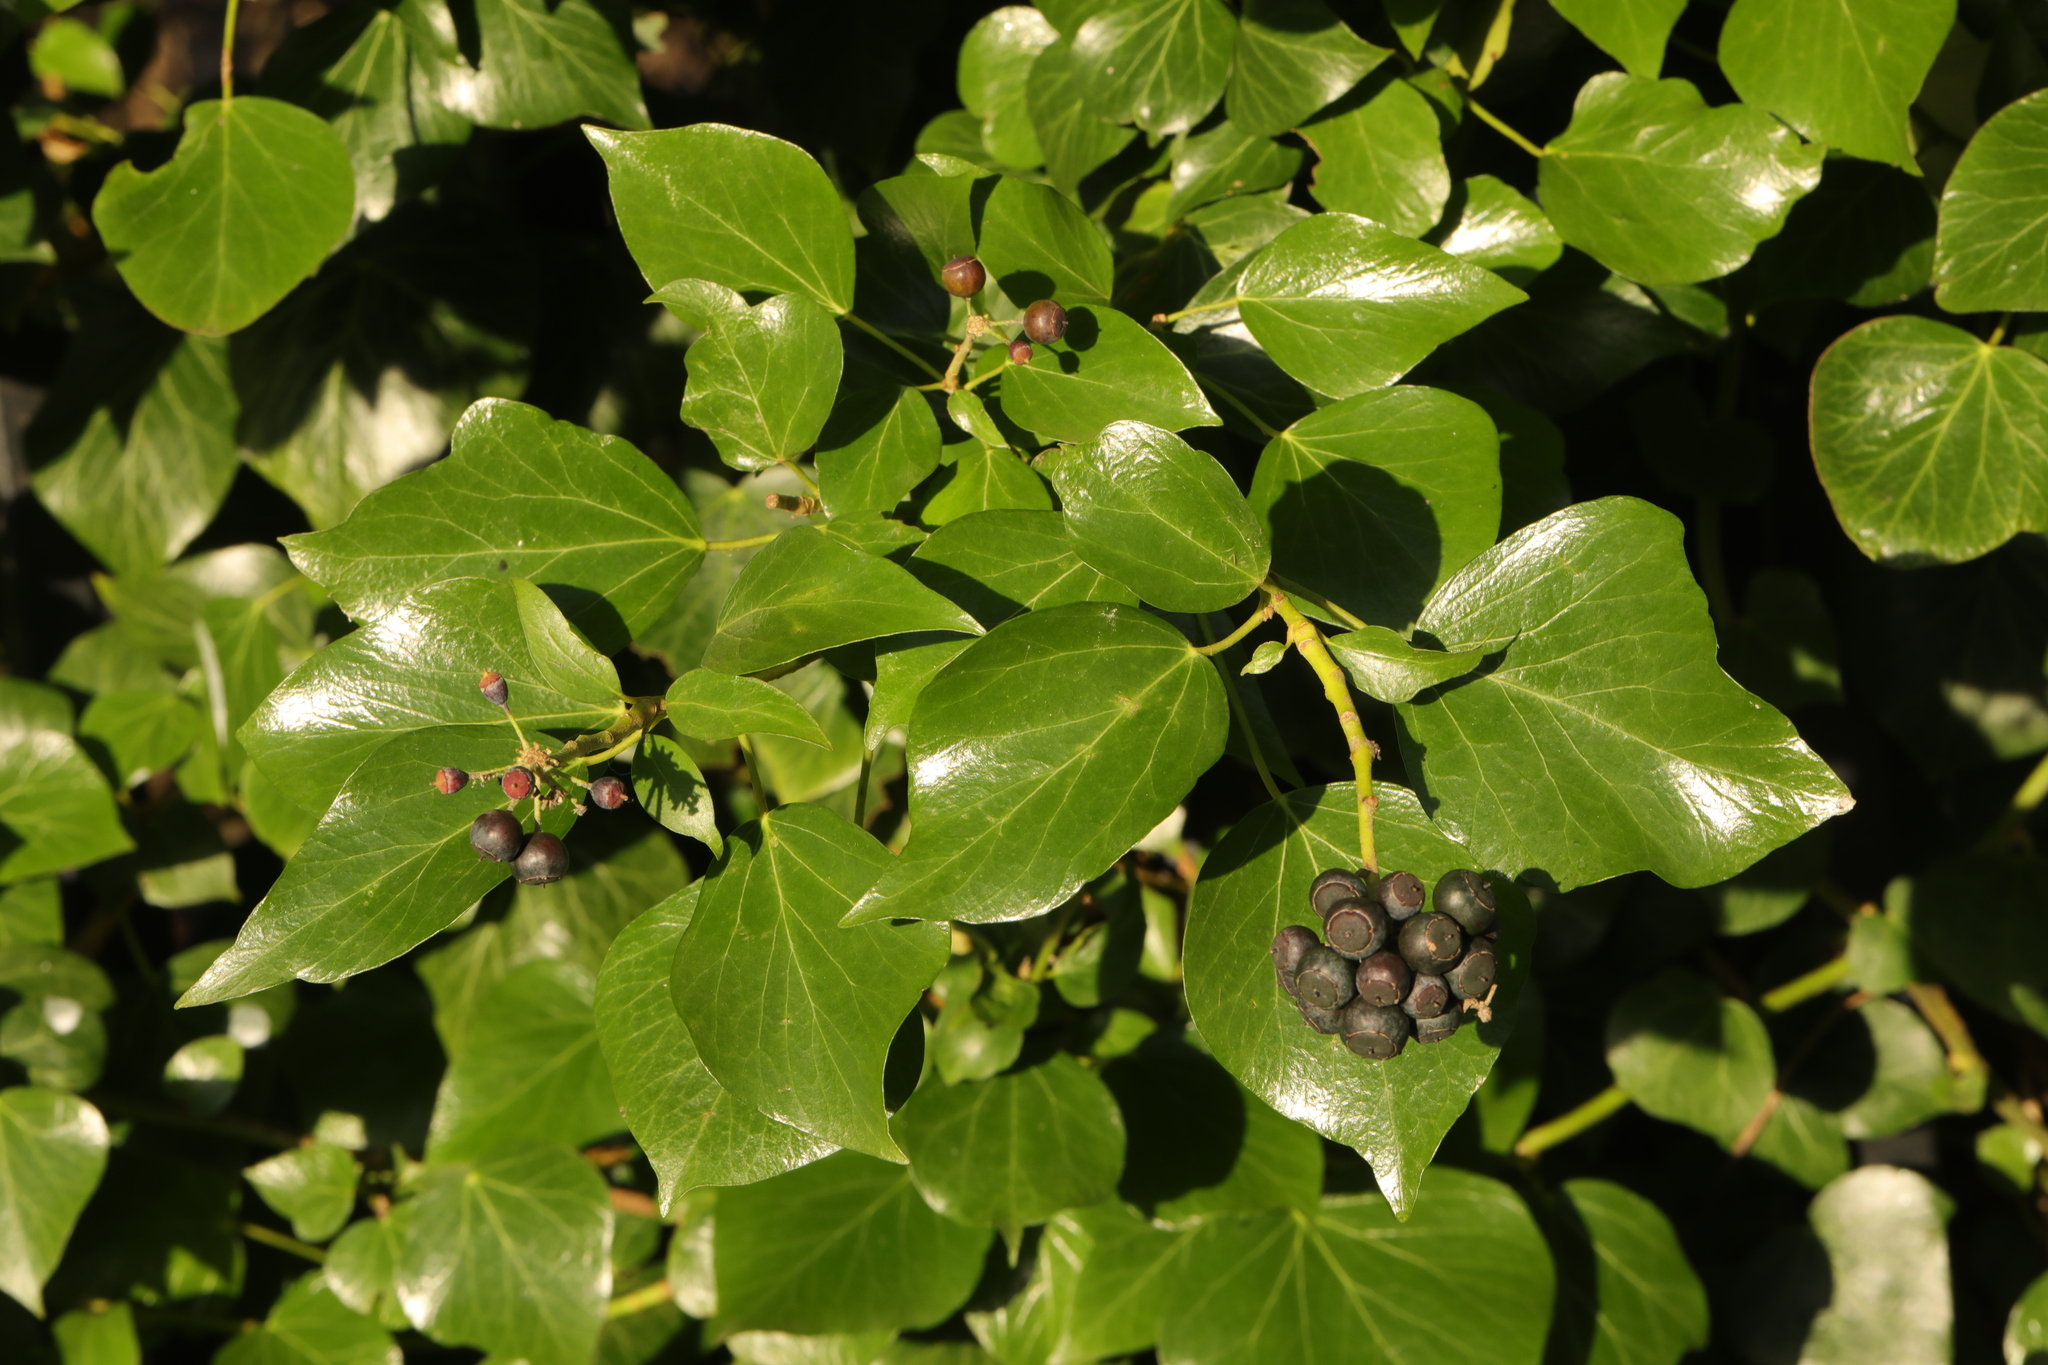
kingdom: Plantae
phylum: Tracheophyta
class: Magnoliopsida
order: Apiales
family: Araliaceae
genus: Hedera
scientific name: Hedera helix
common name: Ivy
